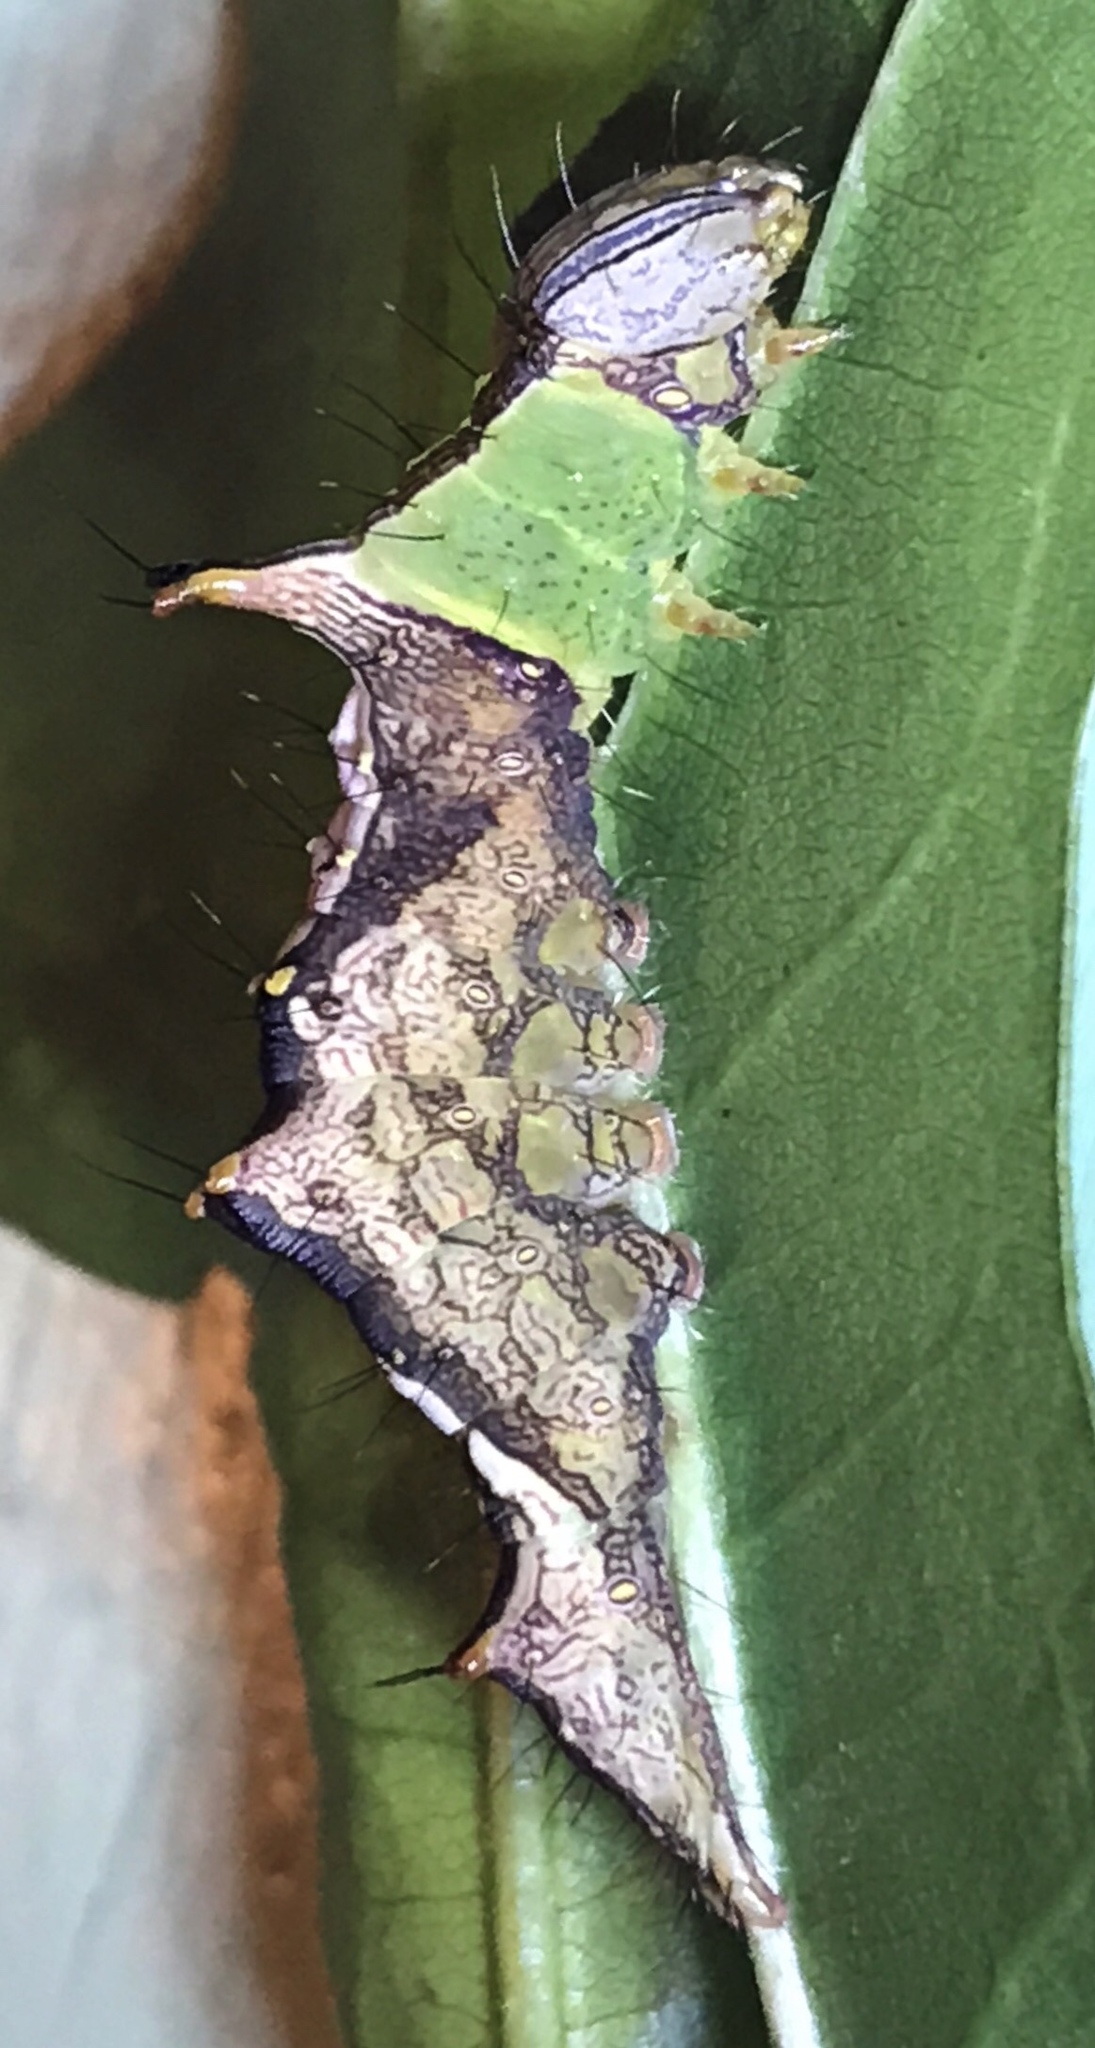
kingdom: Animalia
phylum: Arthropoda
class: Insecta
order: Lepidoptera
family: Notodontidae
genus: Schizura
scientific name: Schizura ipomaeae
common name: Morning-glory prominent
